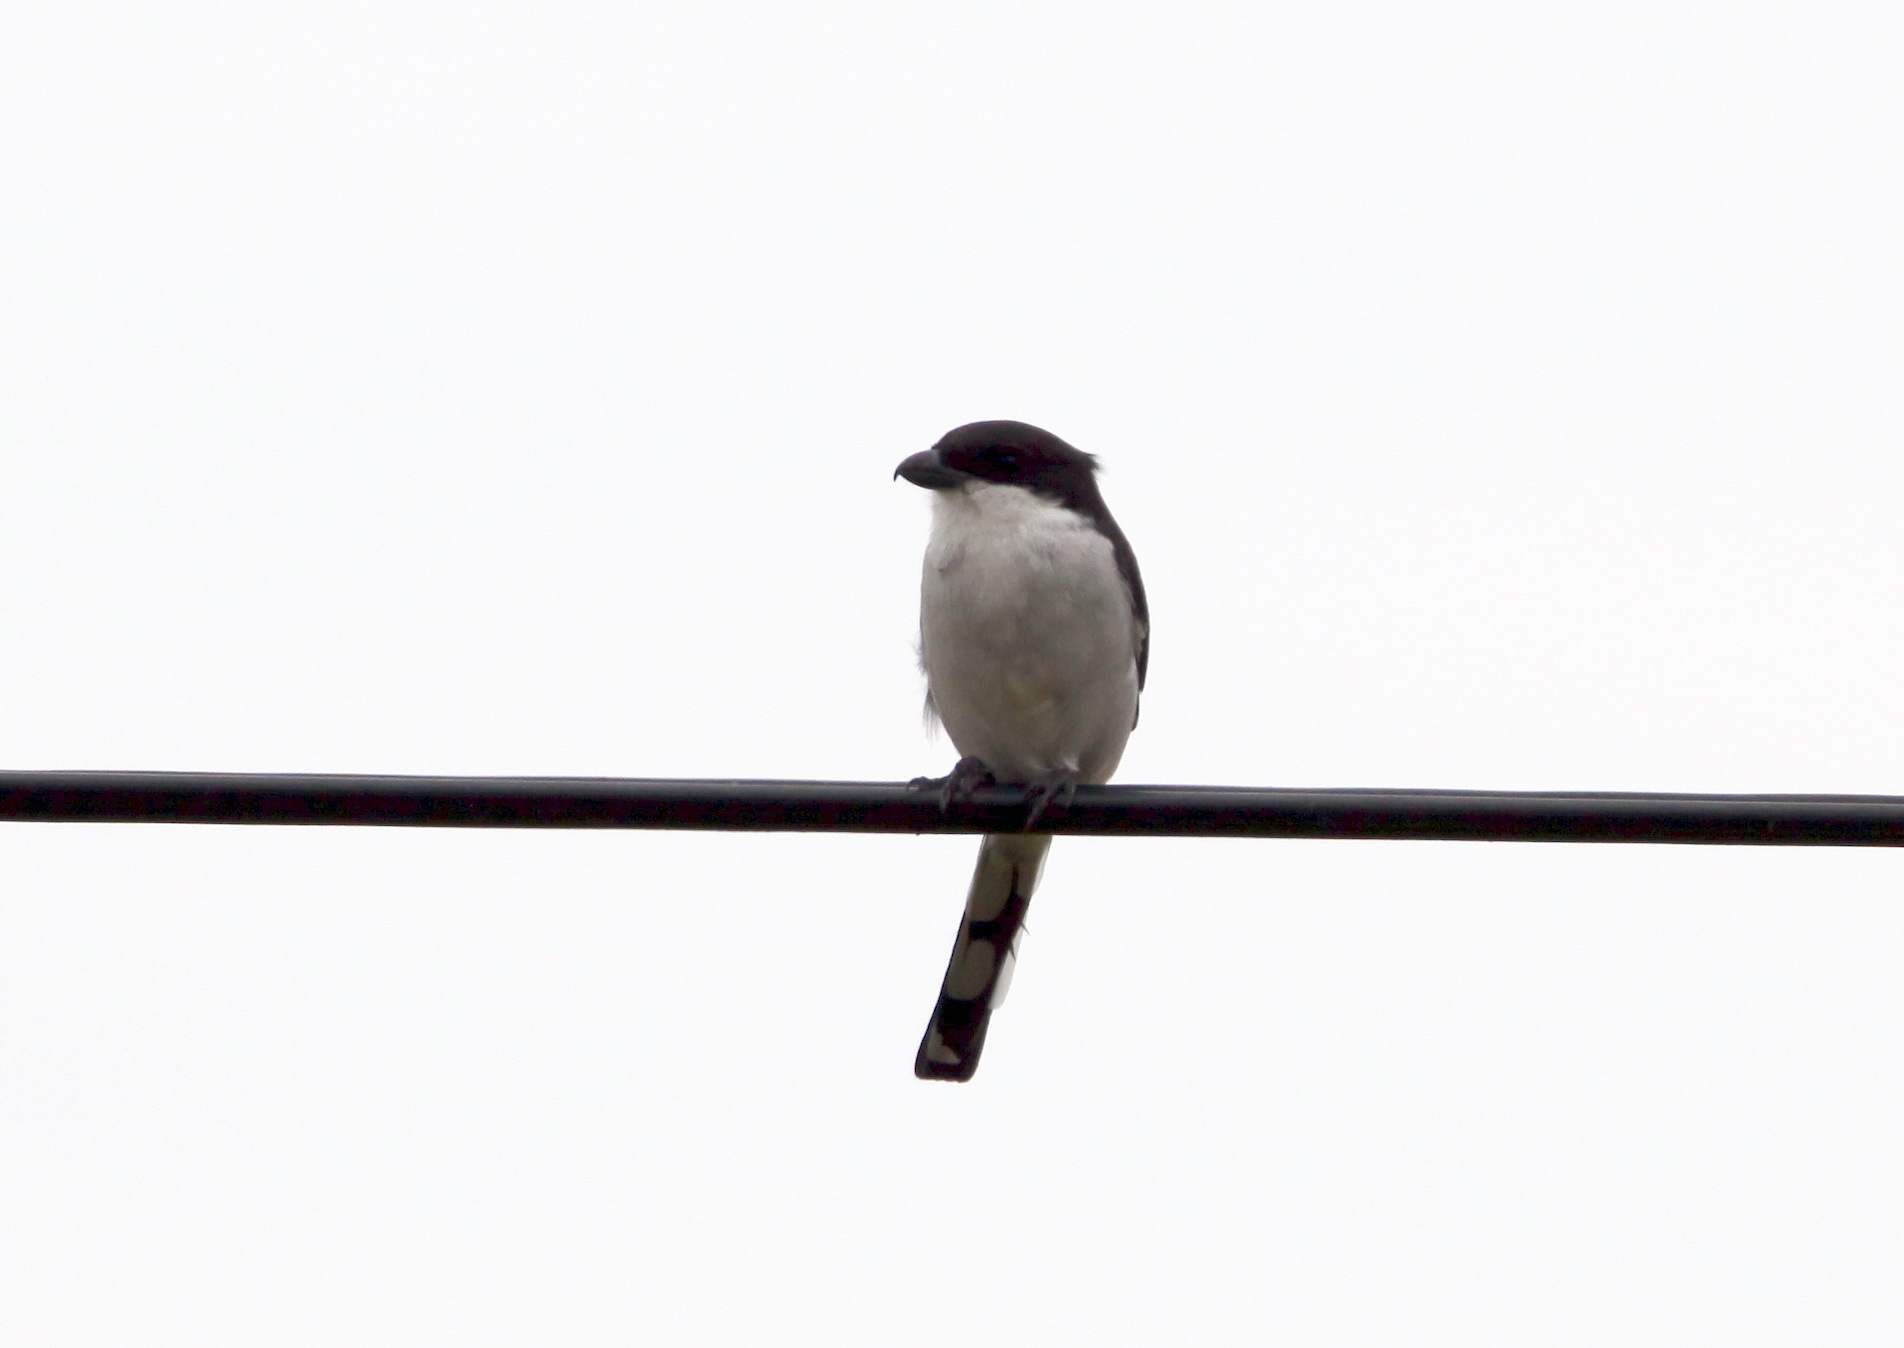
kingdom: Animalia
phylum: Chordata
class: Aves
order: Passeriformes
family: Laniidae
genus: Lanius
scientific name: Lanius collaris
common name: Southern fiscal
